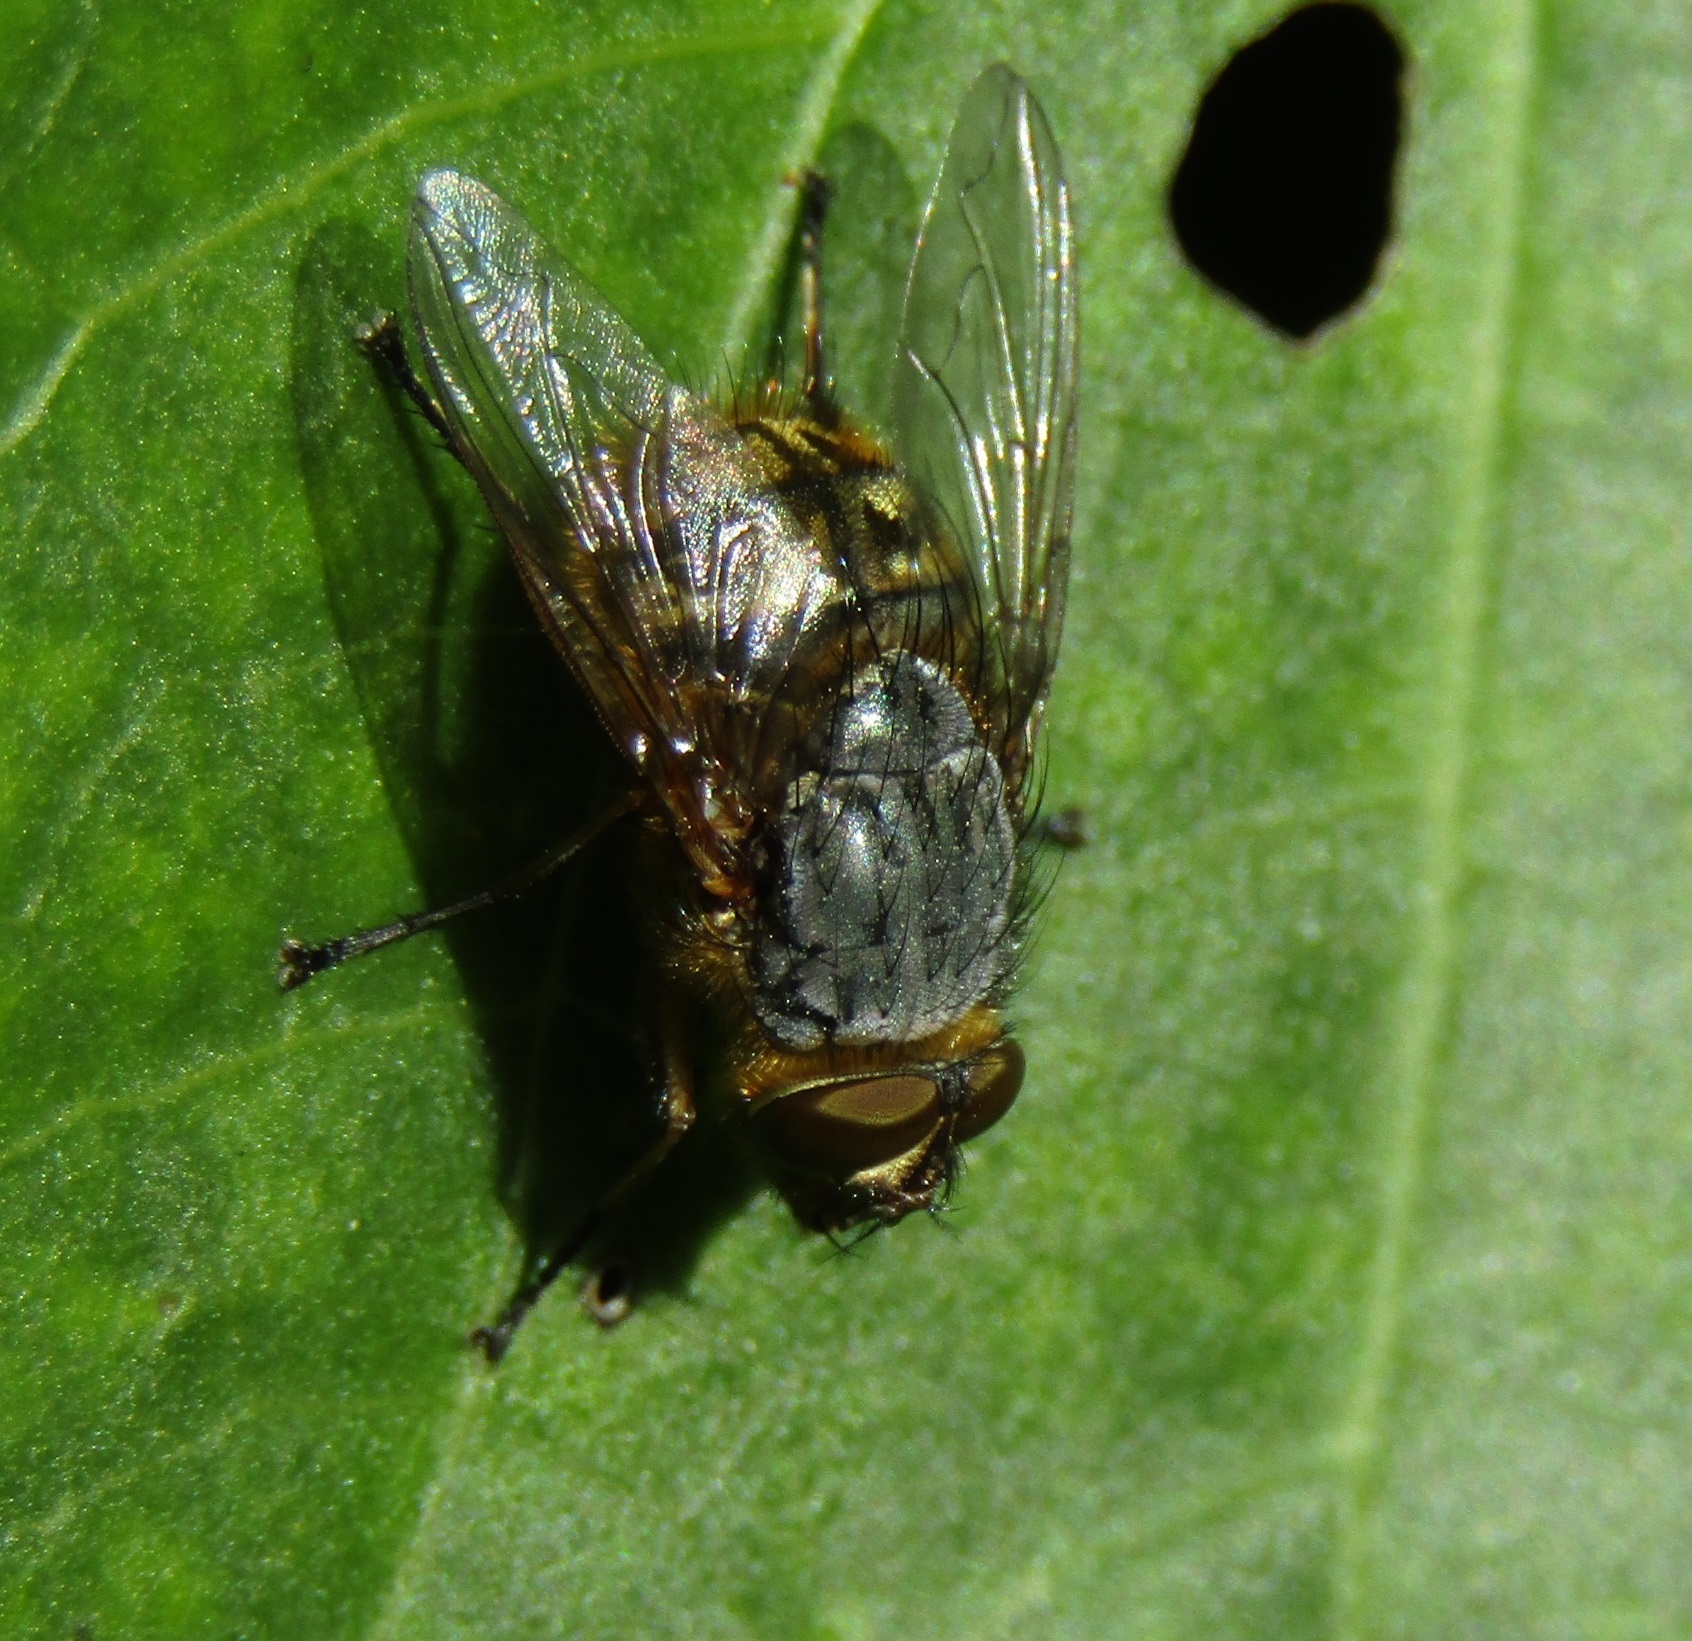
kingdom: Animalia
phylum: Arthropoda
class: Insecta
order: Diptera
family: Calliphoridae
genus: Calliphora
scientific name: Calliphora hilli
